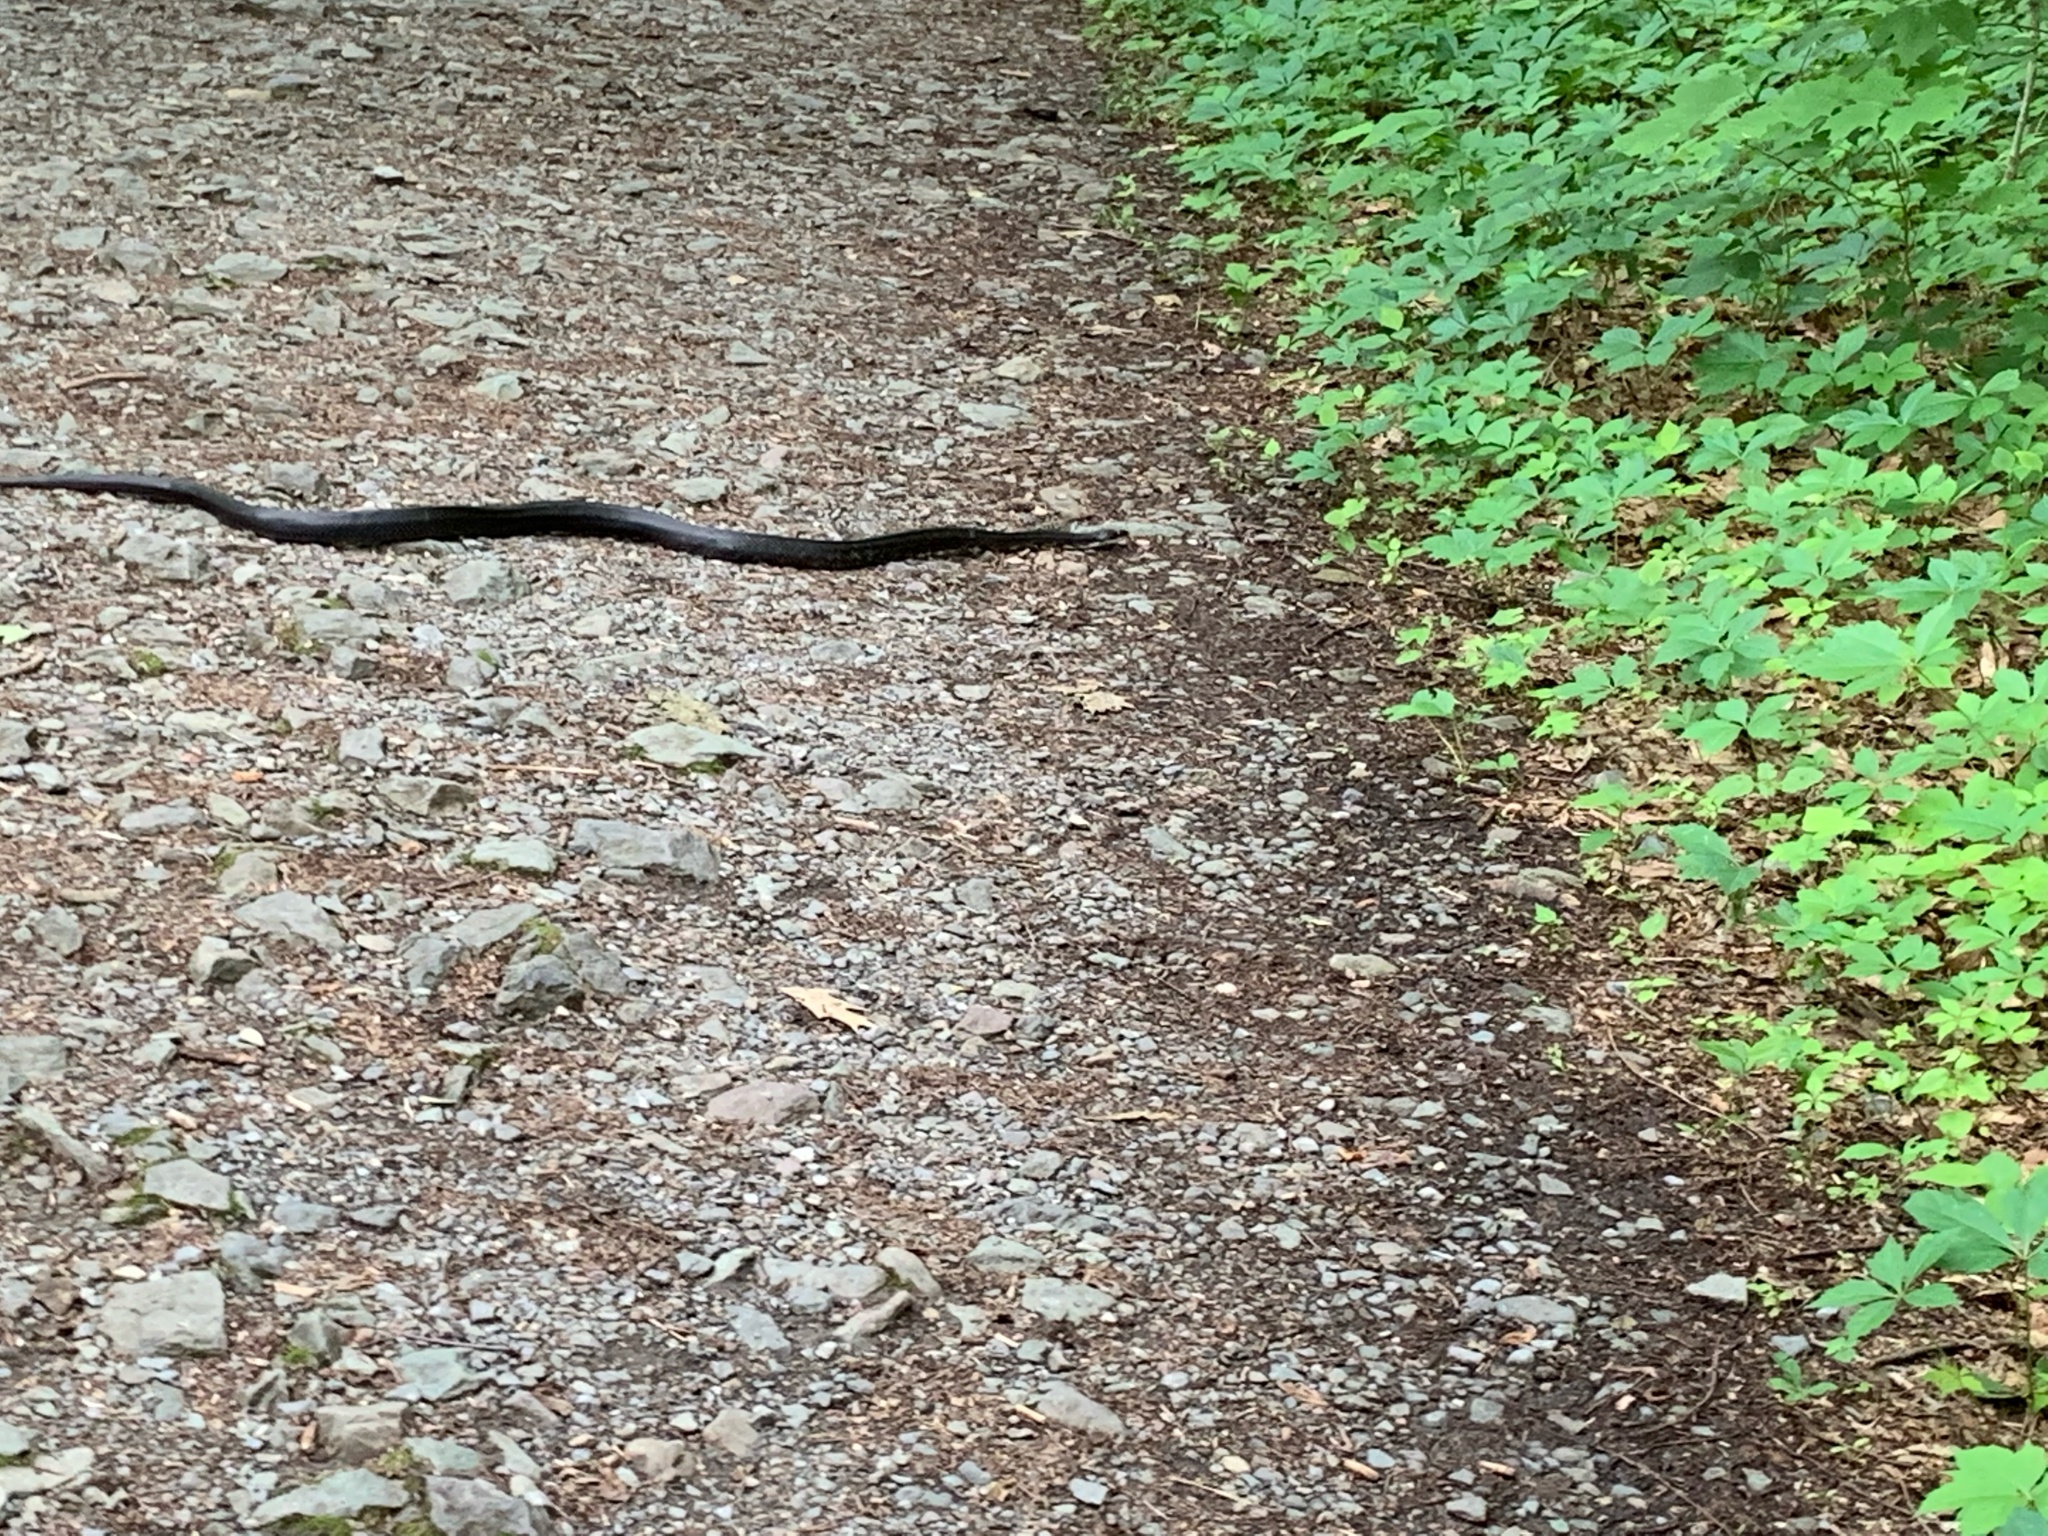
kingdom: Animalia
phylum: Chordata
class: Squamata
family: Colubridae
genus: Pantherophis
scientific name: Pantherophis alleghaniensis
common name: Eastern rat snake
